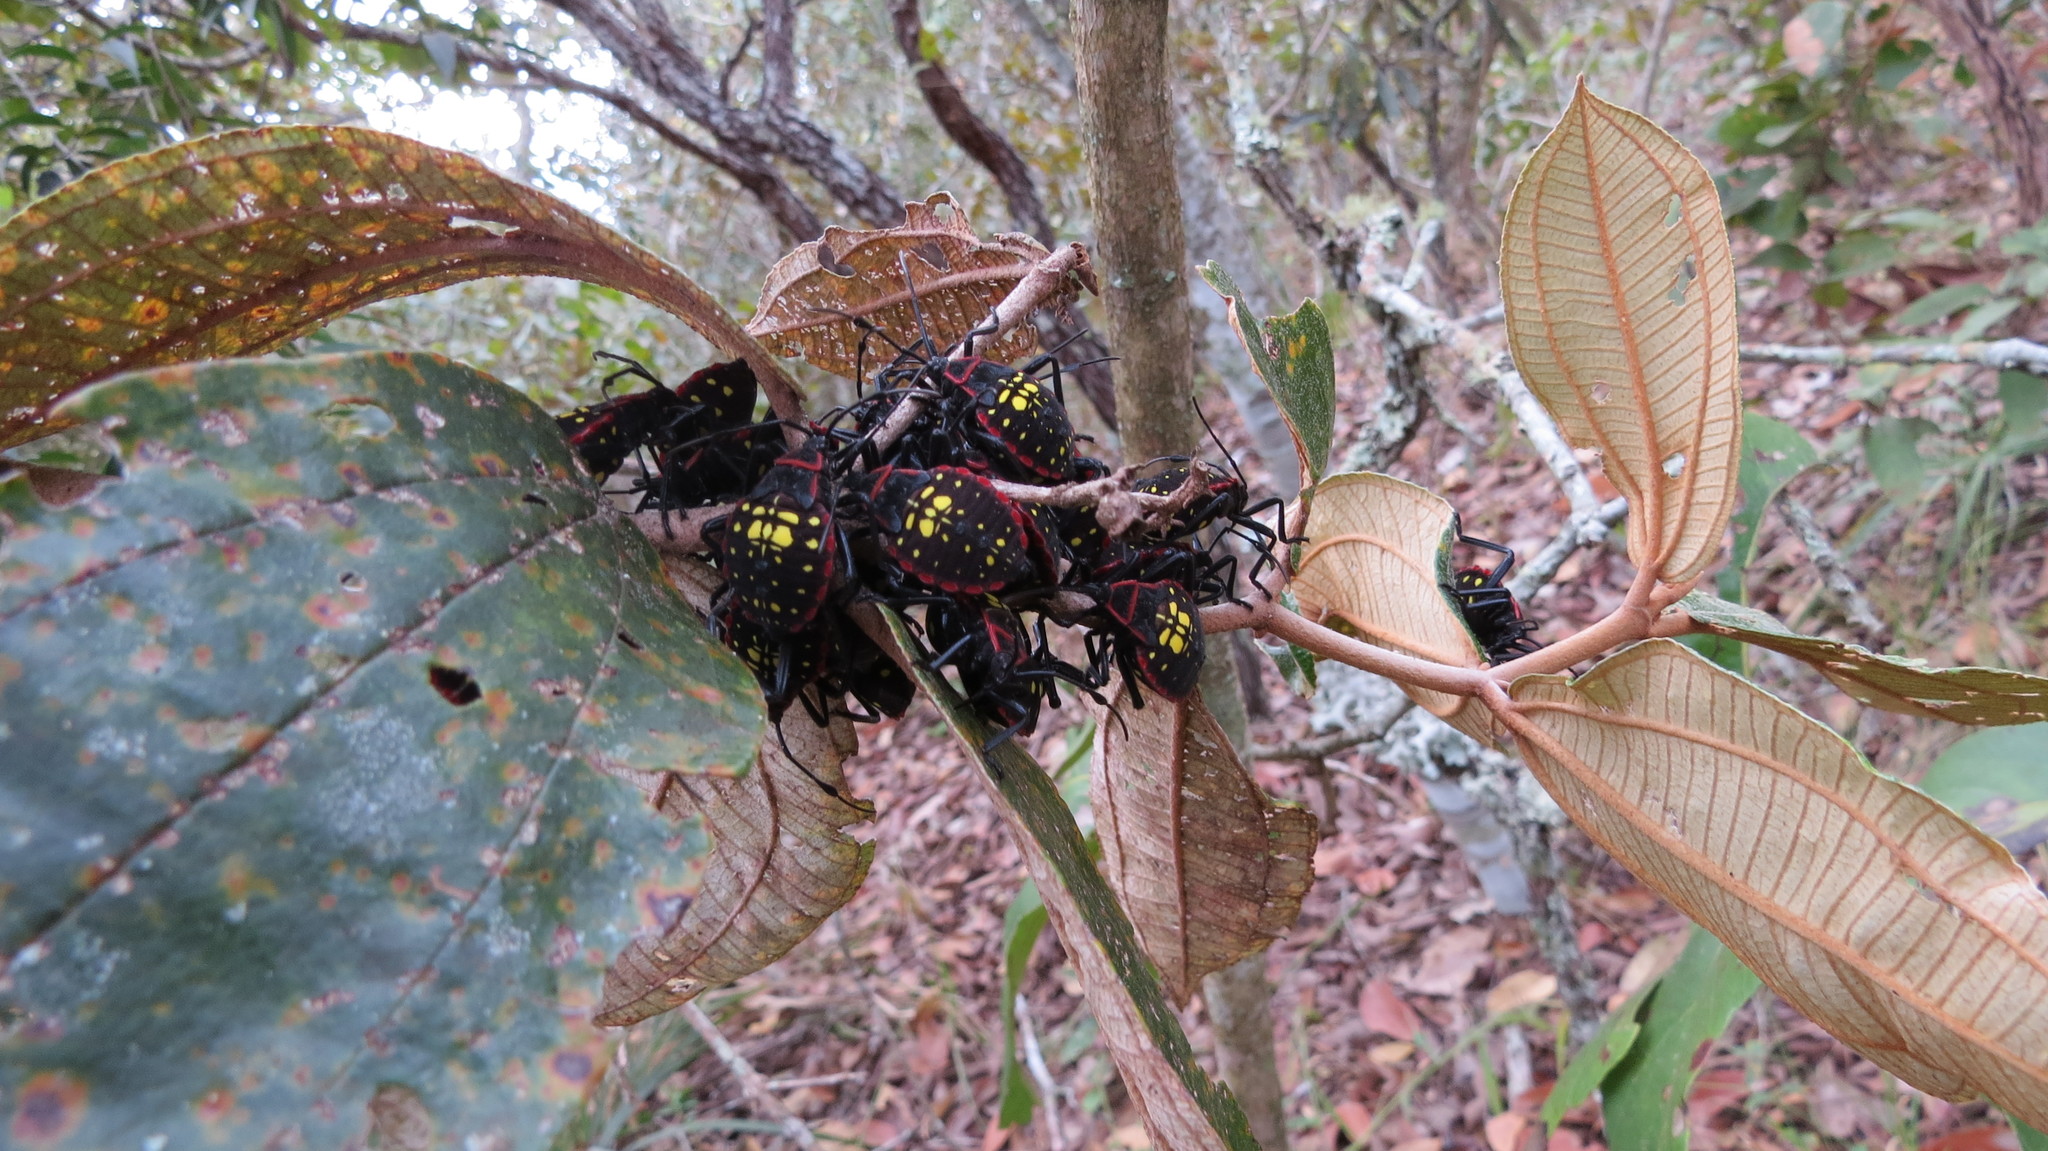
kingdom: Animalia
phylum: Arthropoda
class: Insecta
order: Hemiptera
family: Coreidae
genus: Pachylis
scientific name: Pachylis pharaonis
